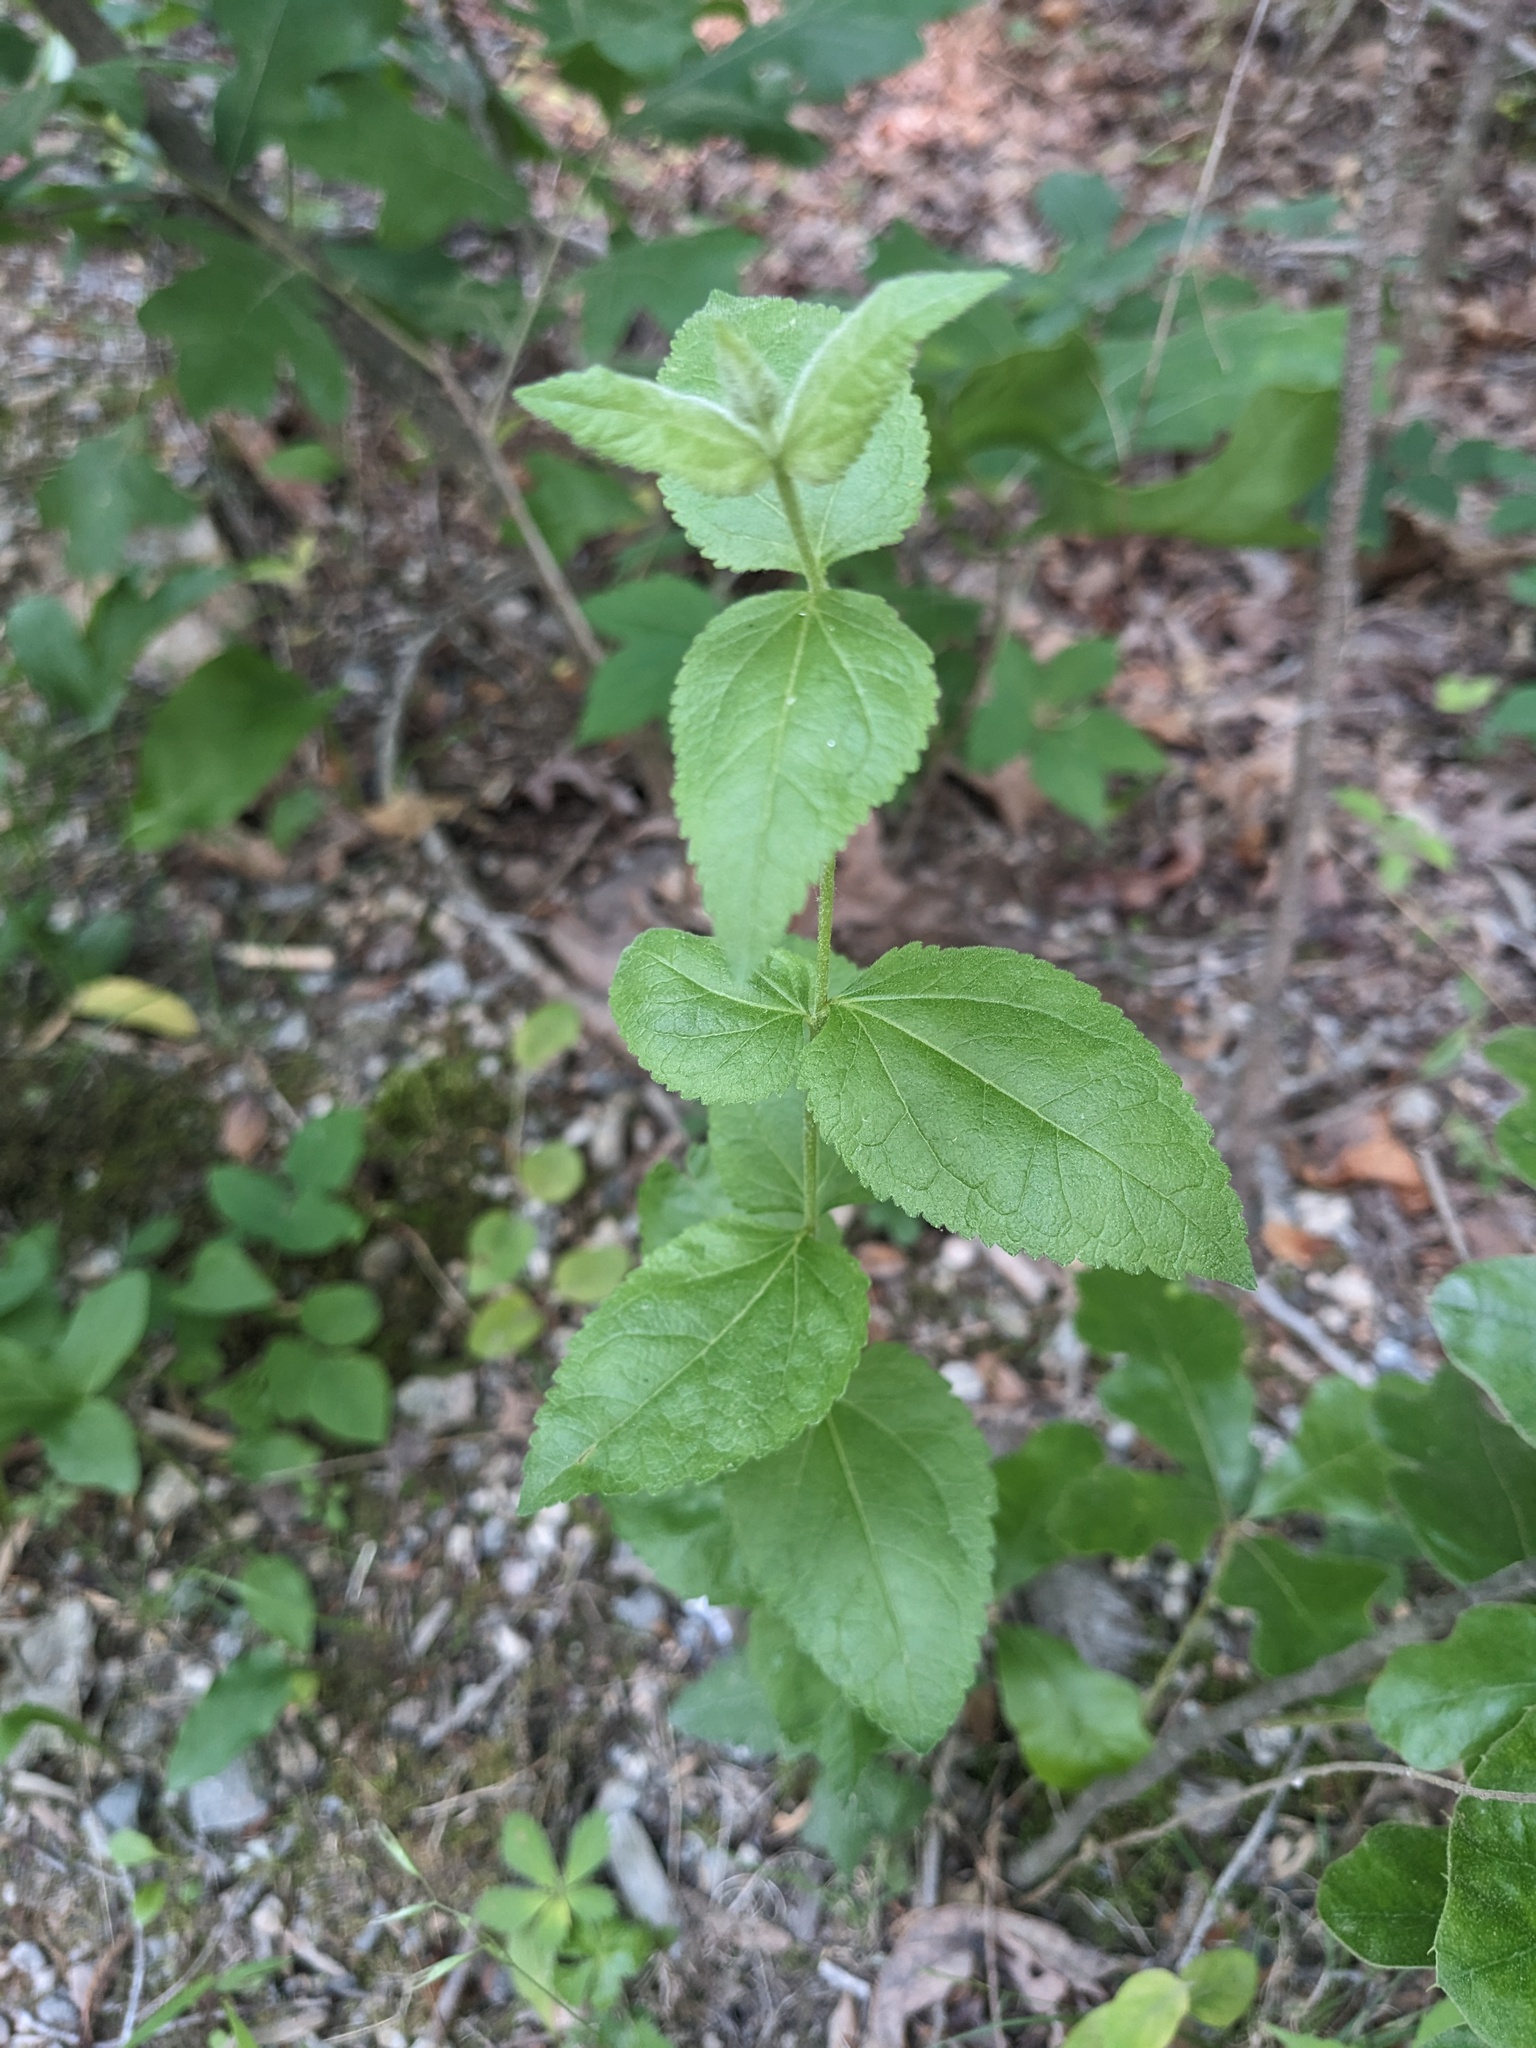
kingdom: Plantae
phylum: Tracheophyta
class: Magnoliopsida
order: Asterales
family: Asteraceae
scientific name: Asteraceae
